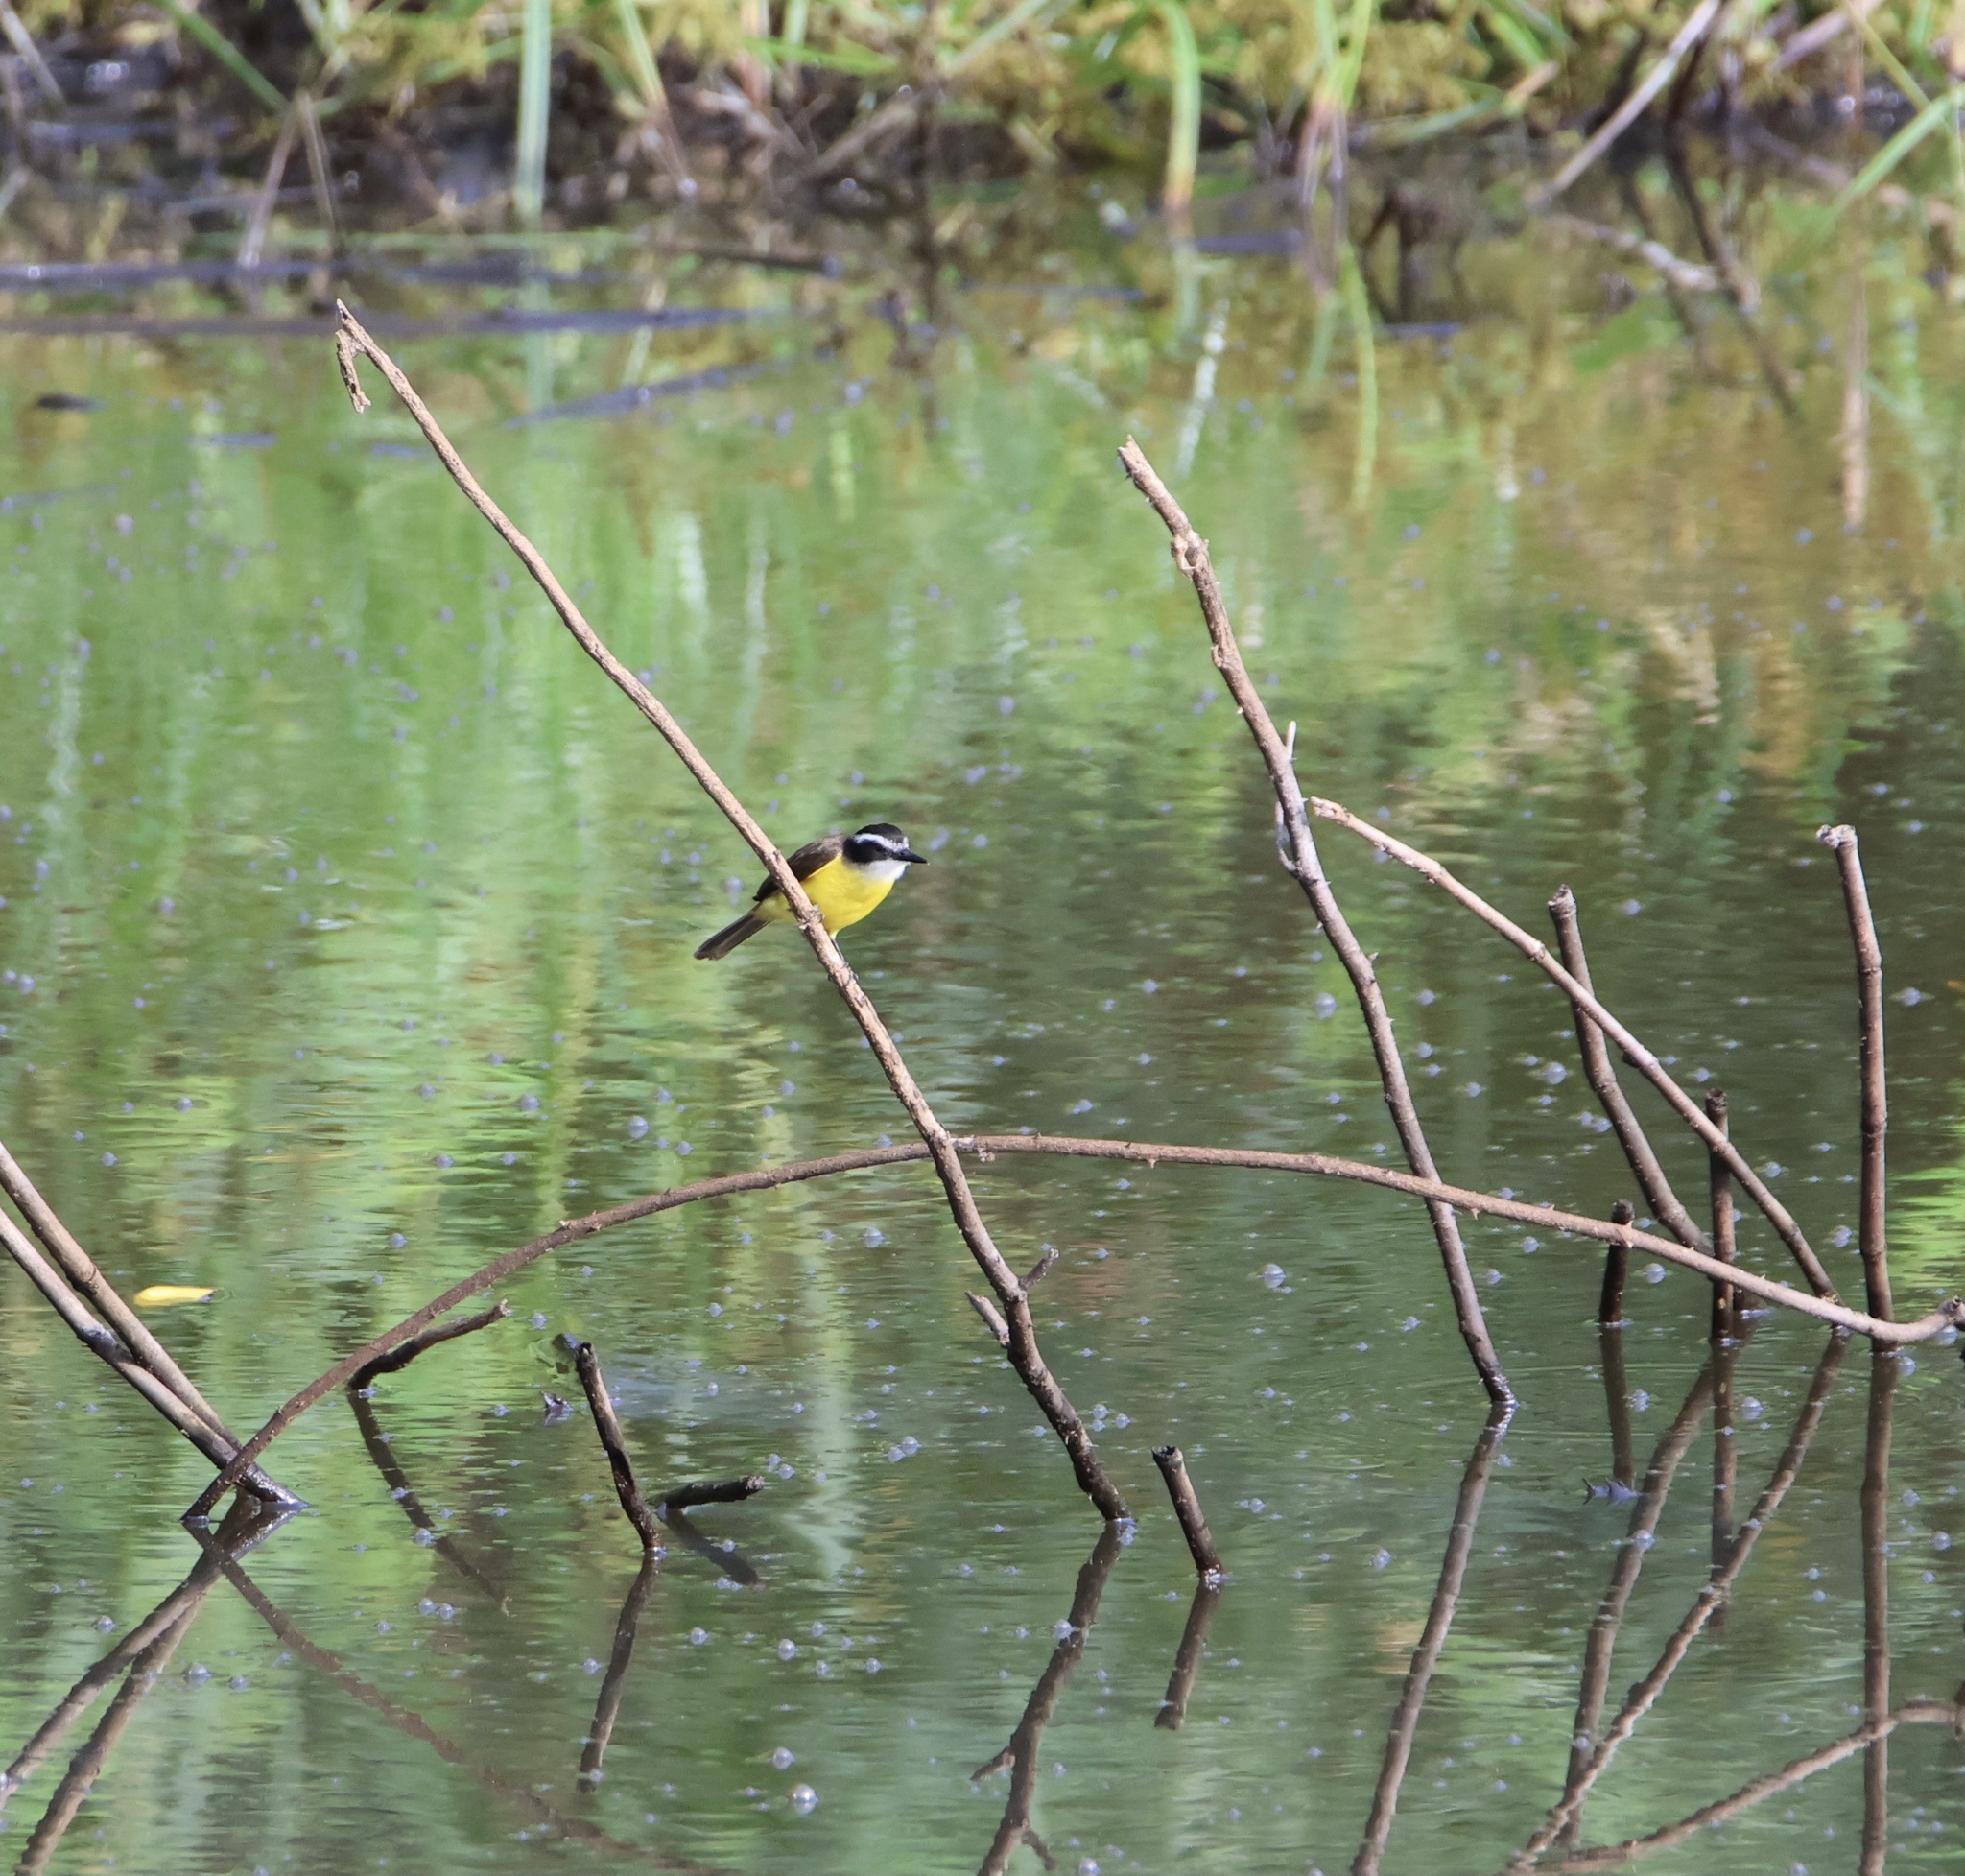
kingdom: Animalia
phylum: Chordata
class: Aves
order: Passeriformes
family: Tyrannidae
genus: Pitangus
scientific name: Pitangus lictor
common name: Lesser kiskadee
